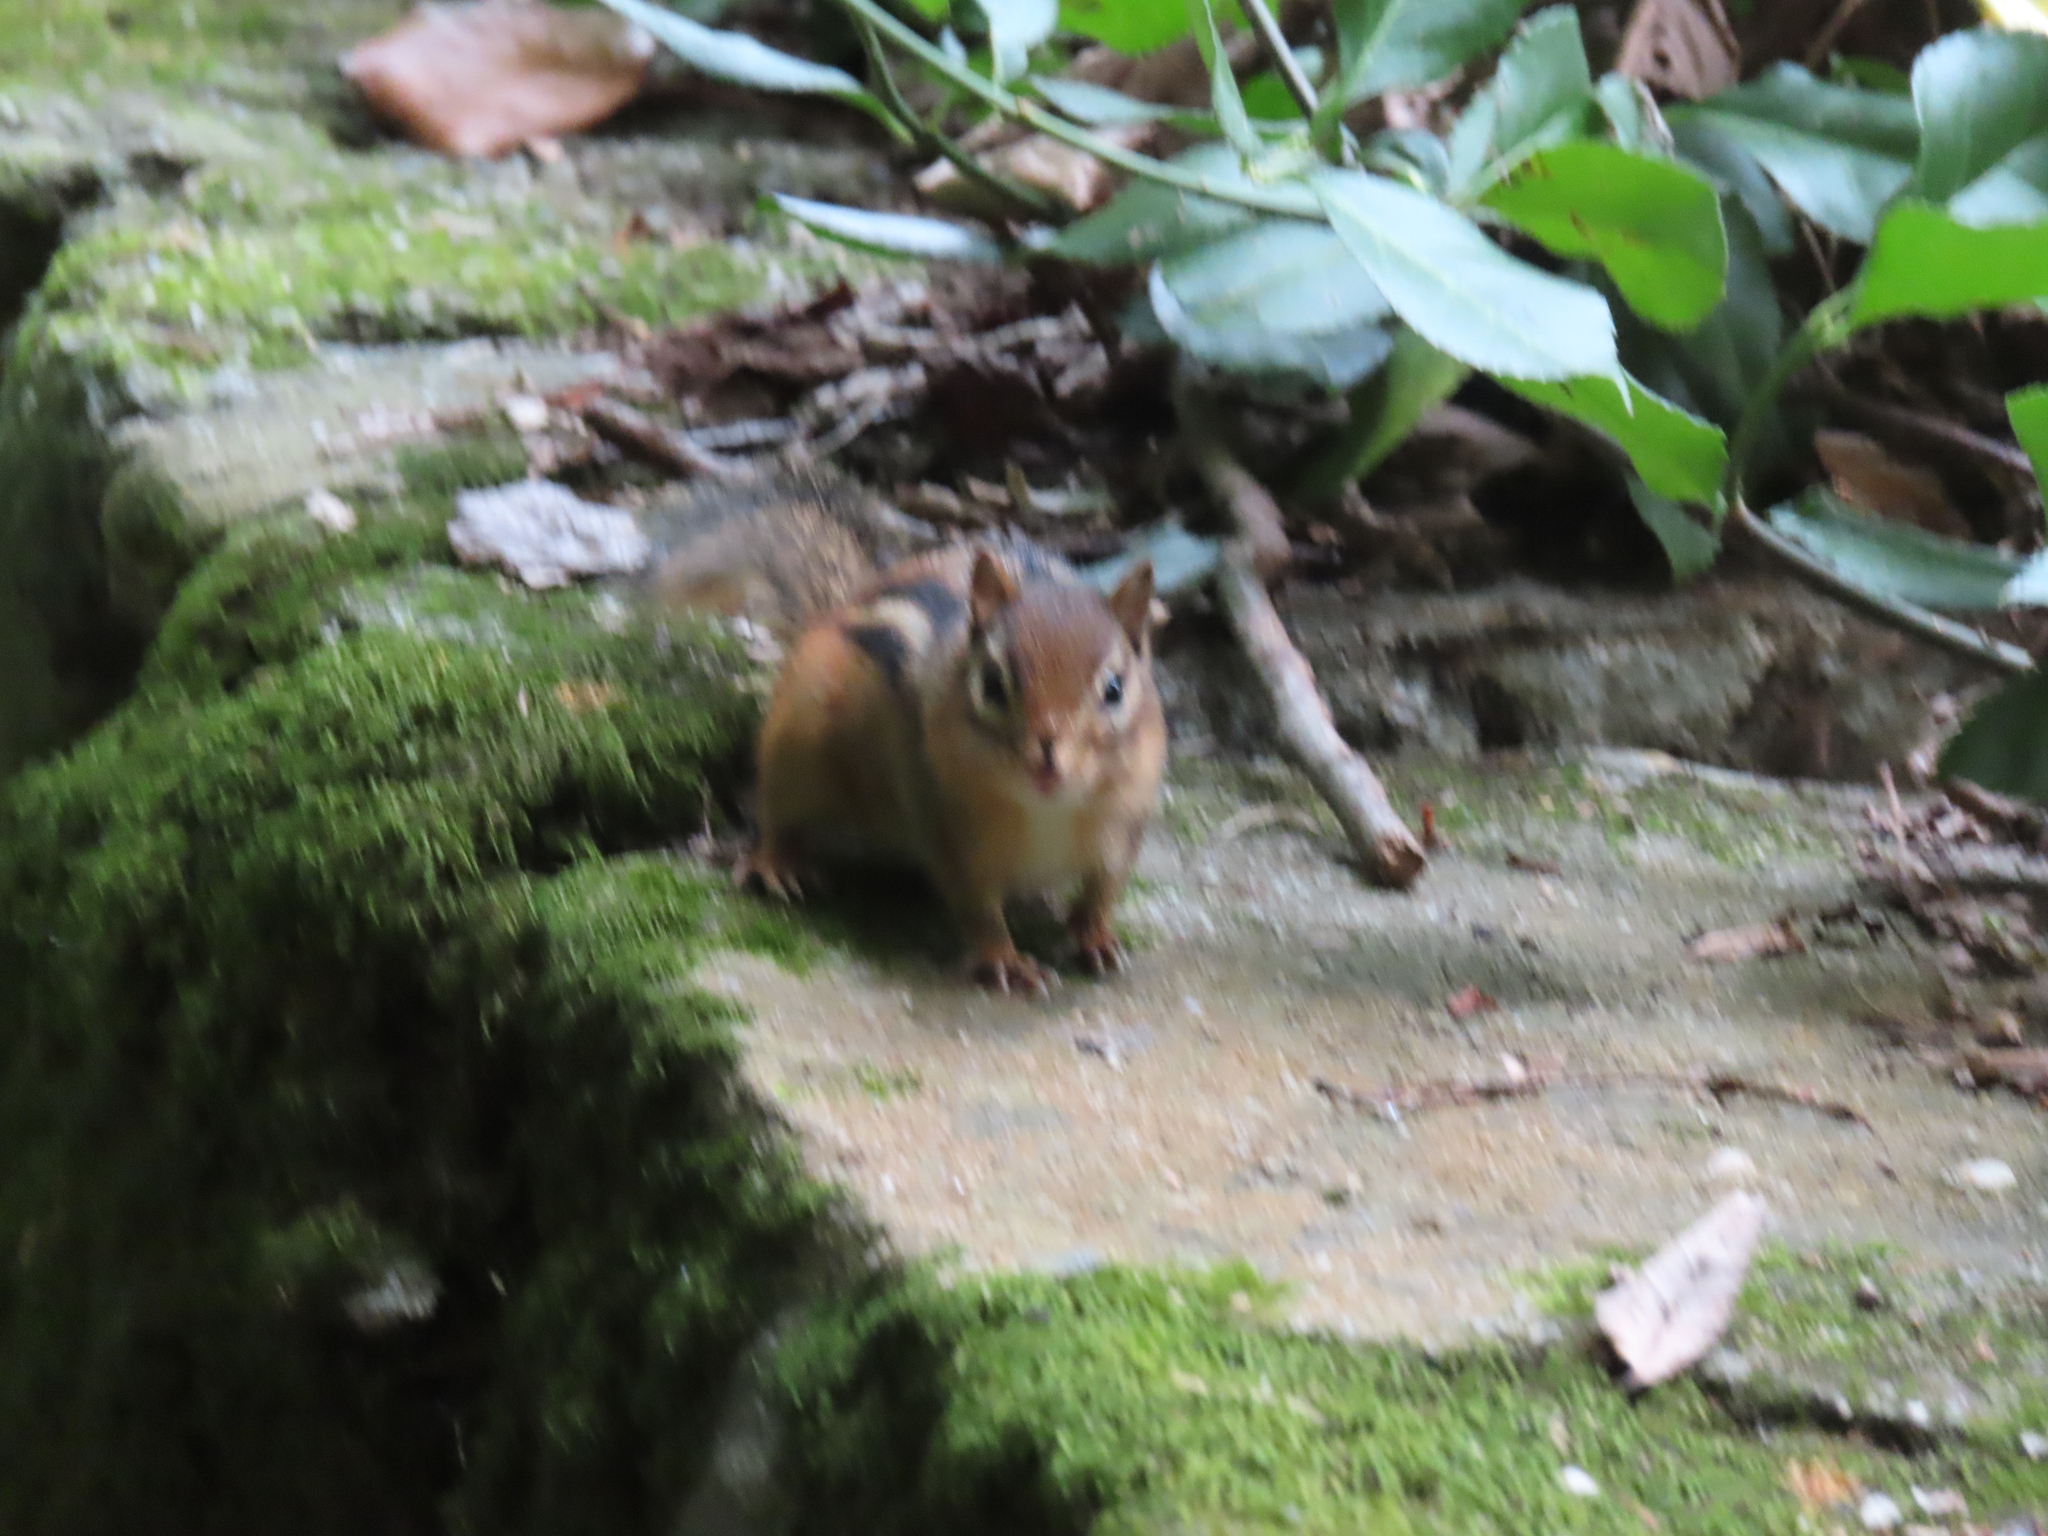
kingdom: Animalia
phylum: Chordata
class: Mammalia
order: Rodentia
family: Sciuridae
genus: Tamias
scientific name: Tamias striatus
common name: Eastern chipmunk
